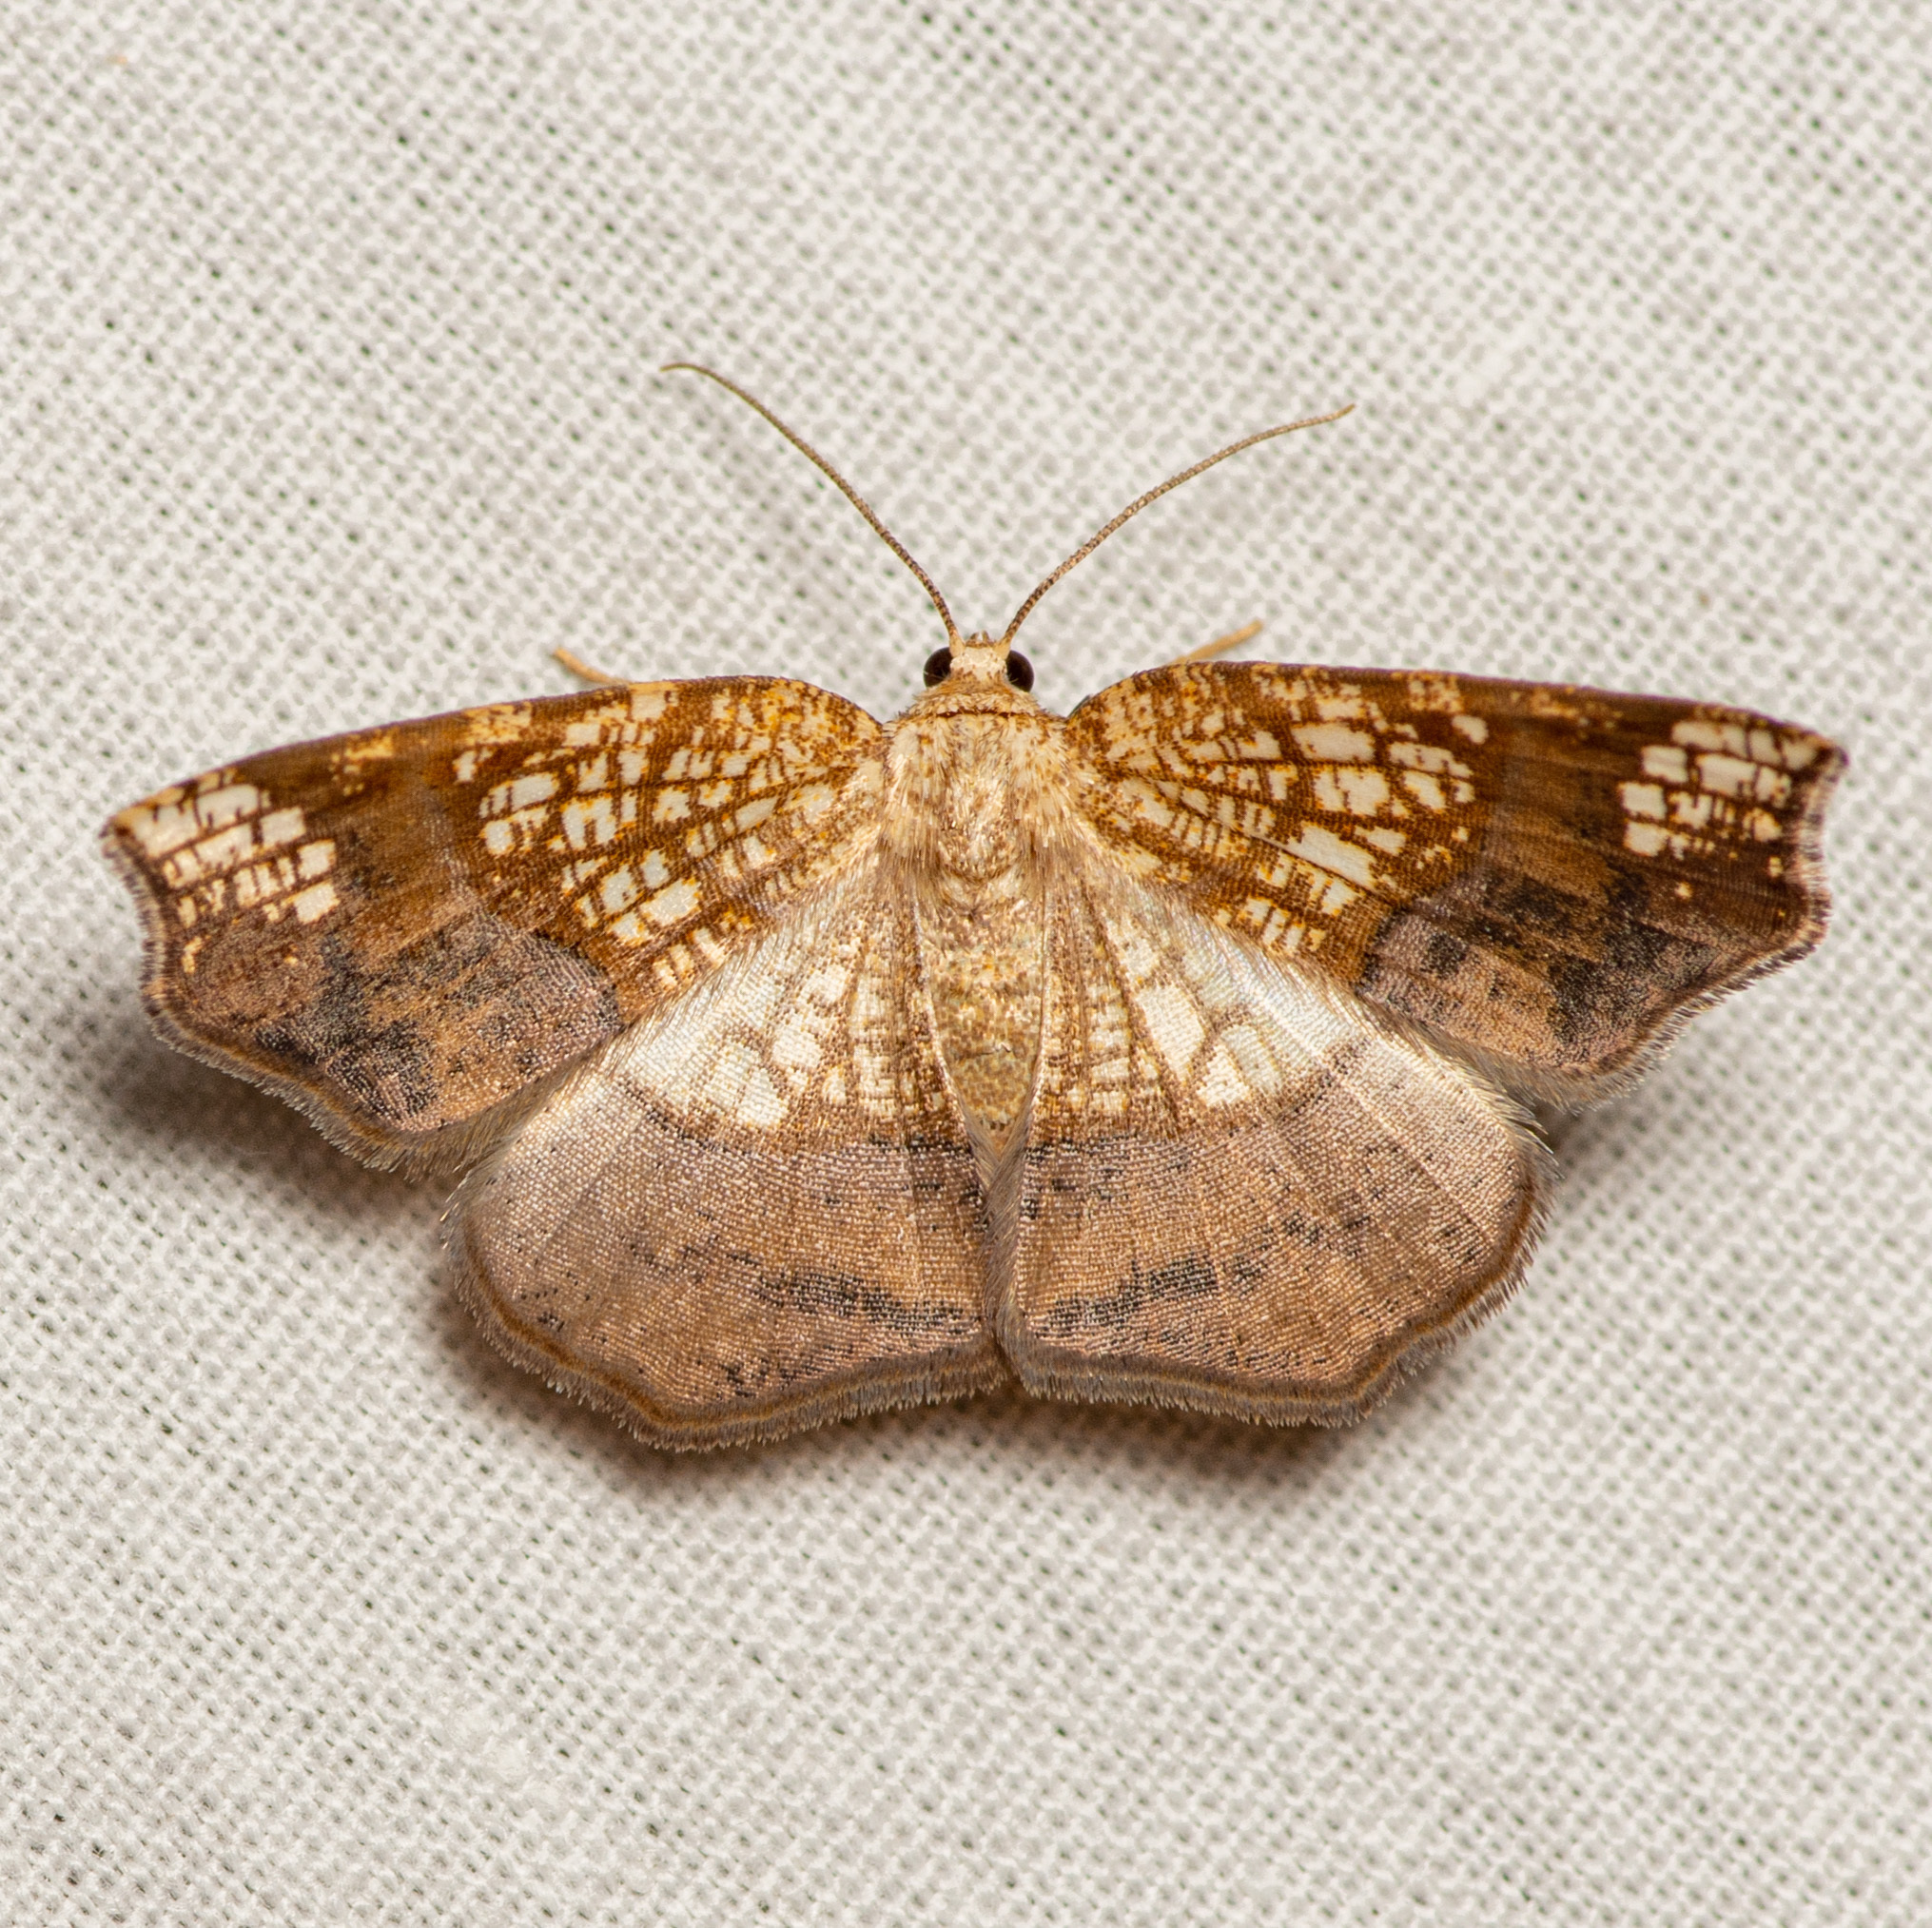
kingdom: Animalia
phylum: Arthropoda
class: Insecta
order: Lepidoptera
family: Geometridae
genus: Nematocampa
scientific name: Nematocampa resistaria
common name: Horned spanworm moth
